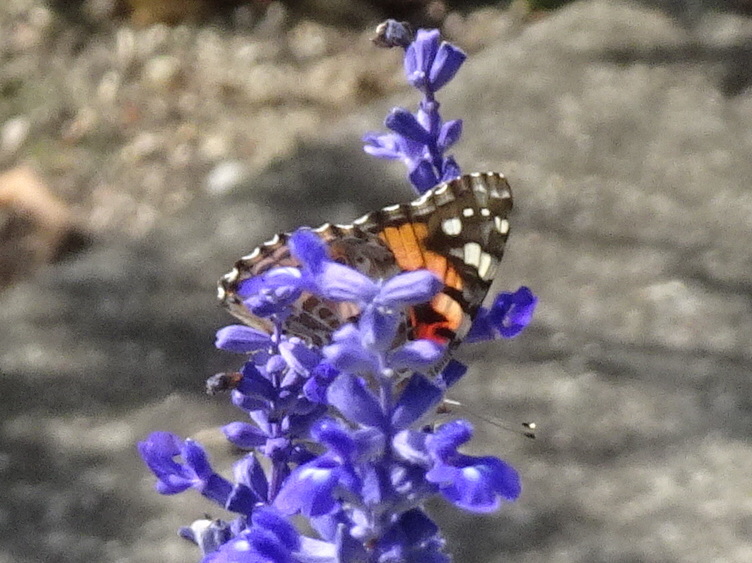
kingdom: Animalia
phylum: Arthropoda
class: Insecta
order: Lepidoptera
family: Nymphalidae
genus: Vanessa
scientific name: Vanessa cardui
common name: Painted lady
